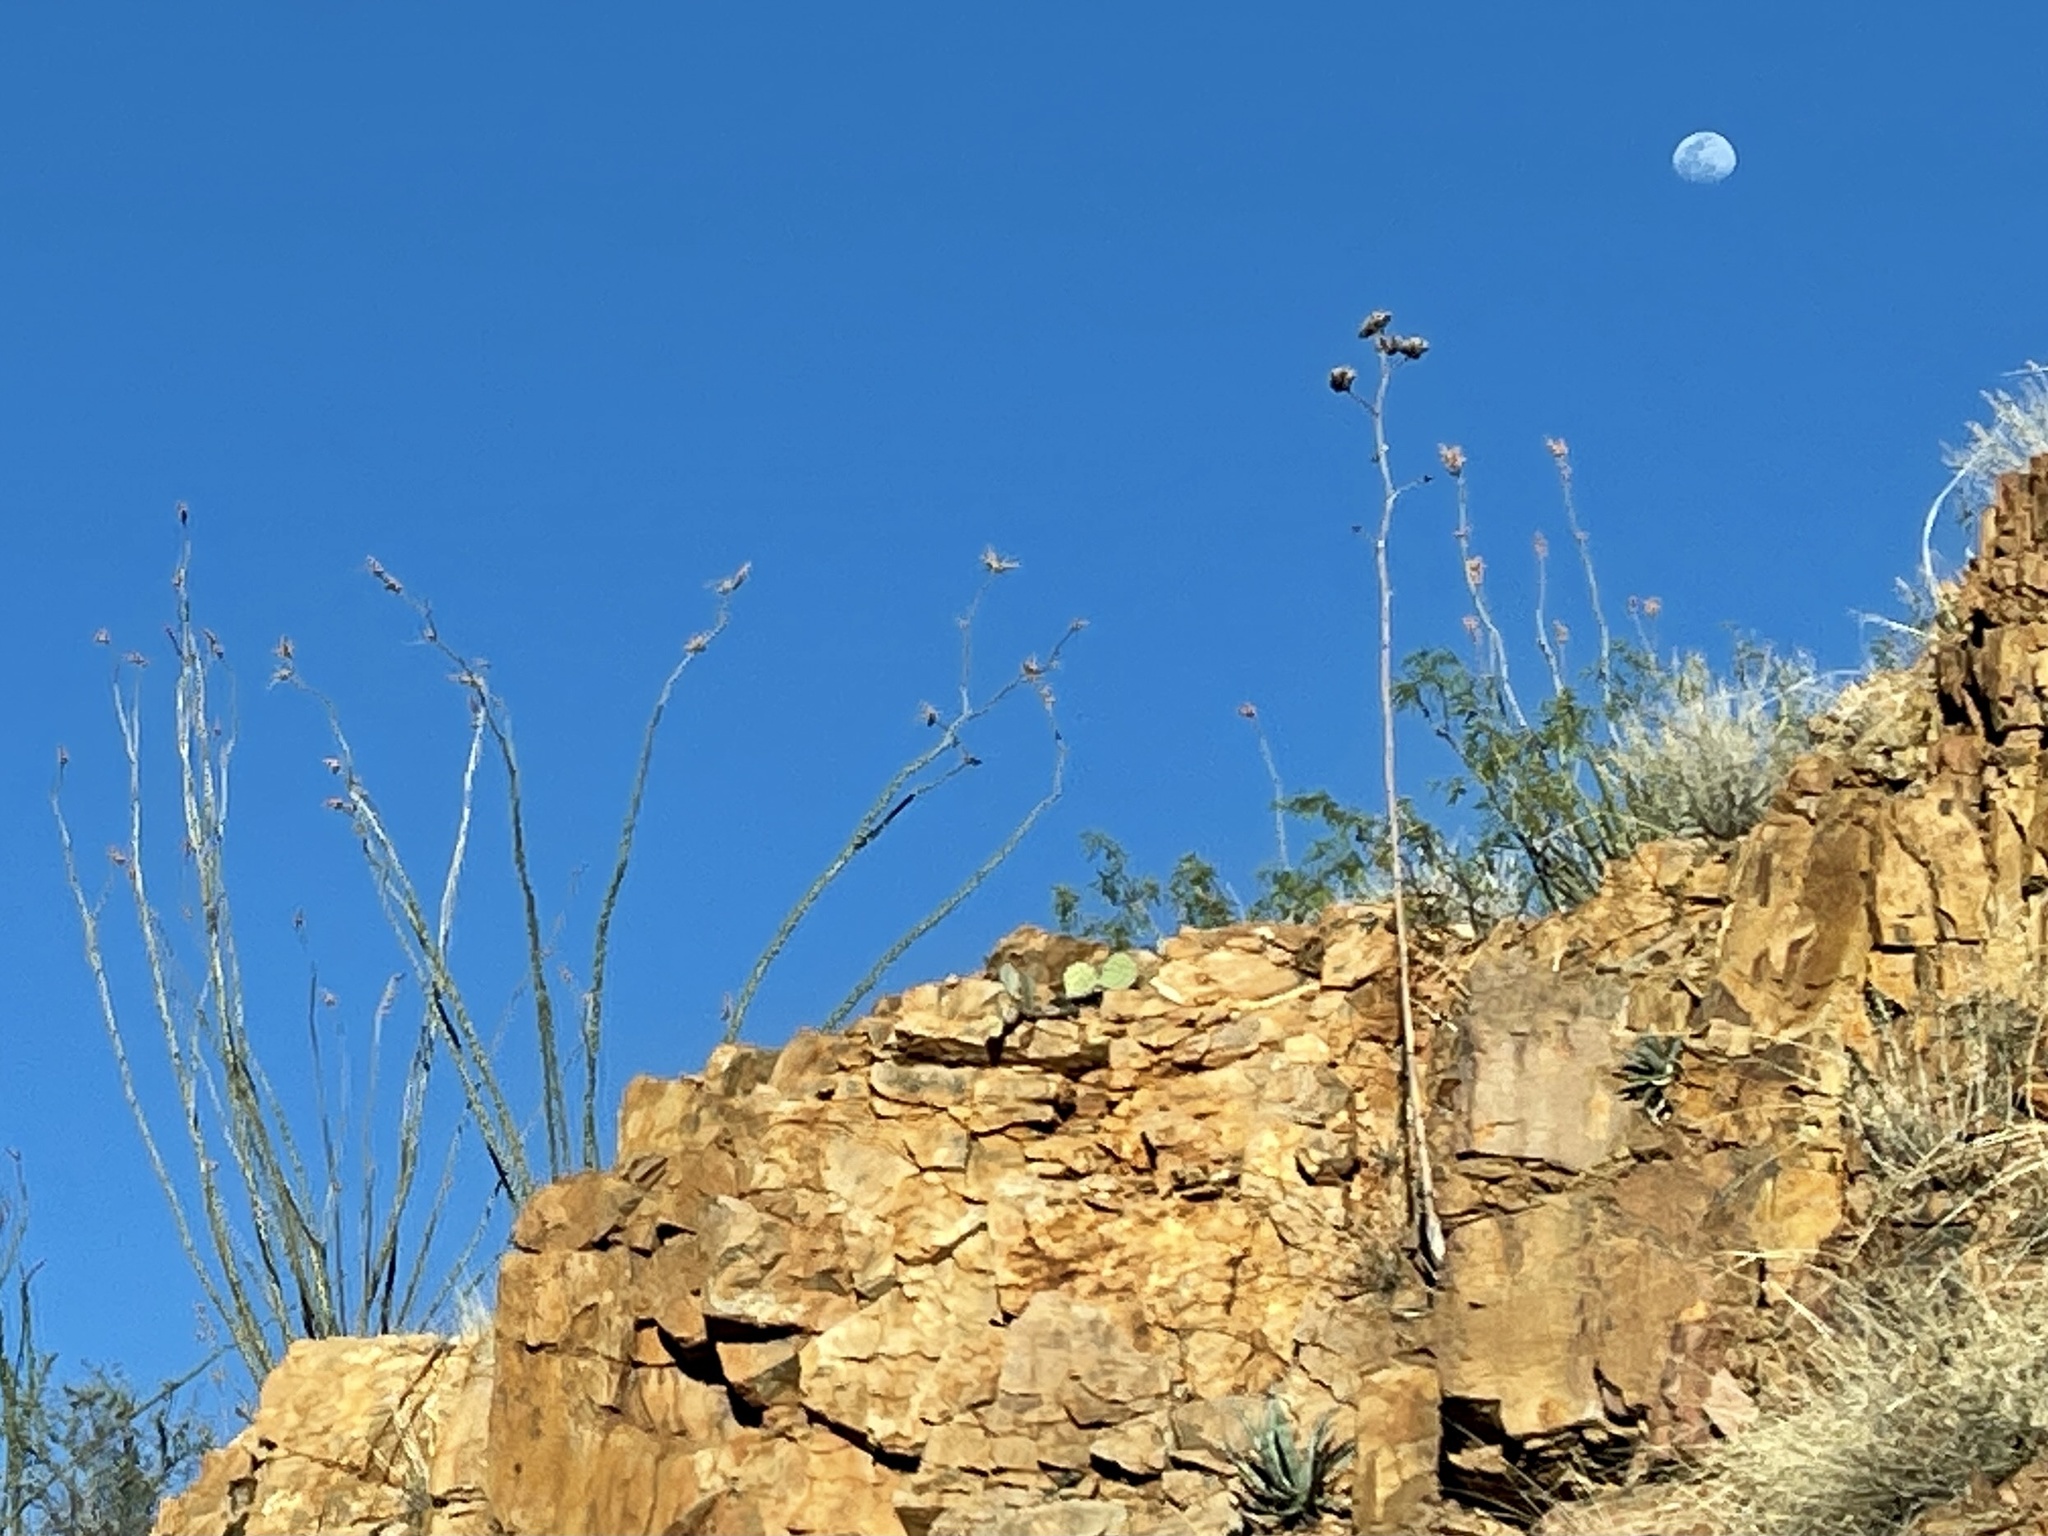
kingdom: Plantae
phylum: Tracheophyta
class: Magnoliopsida
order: Ericales
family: Fouquieriaceae
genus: Fouquieria
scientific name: Fouquieria splendens
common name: Vine-cactus
